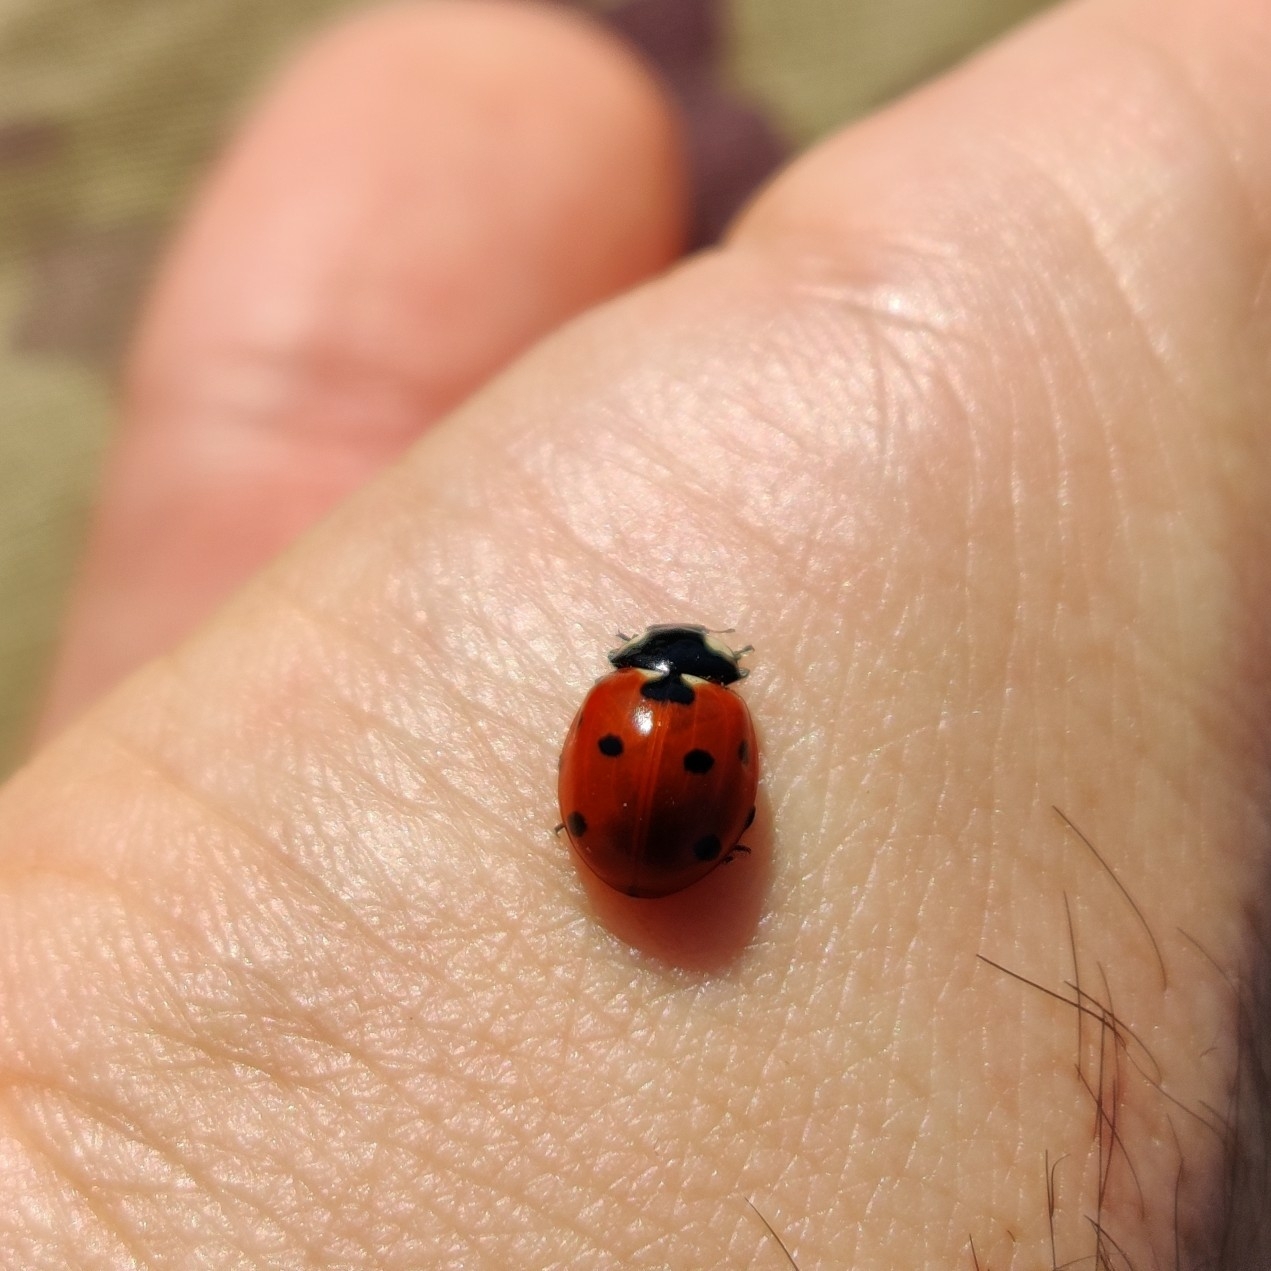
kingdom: Animalia
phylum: Arthropoda
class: Insecta
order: Coleoptera
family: Coccinellidae
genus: Coccinella
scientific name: Coccinella septempunctata
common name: Sevenspotted lady beetle
